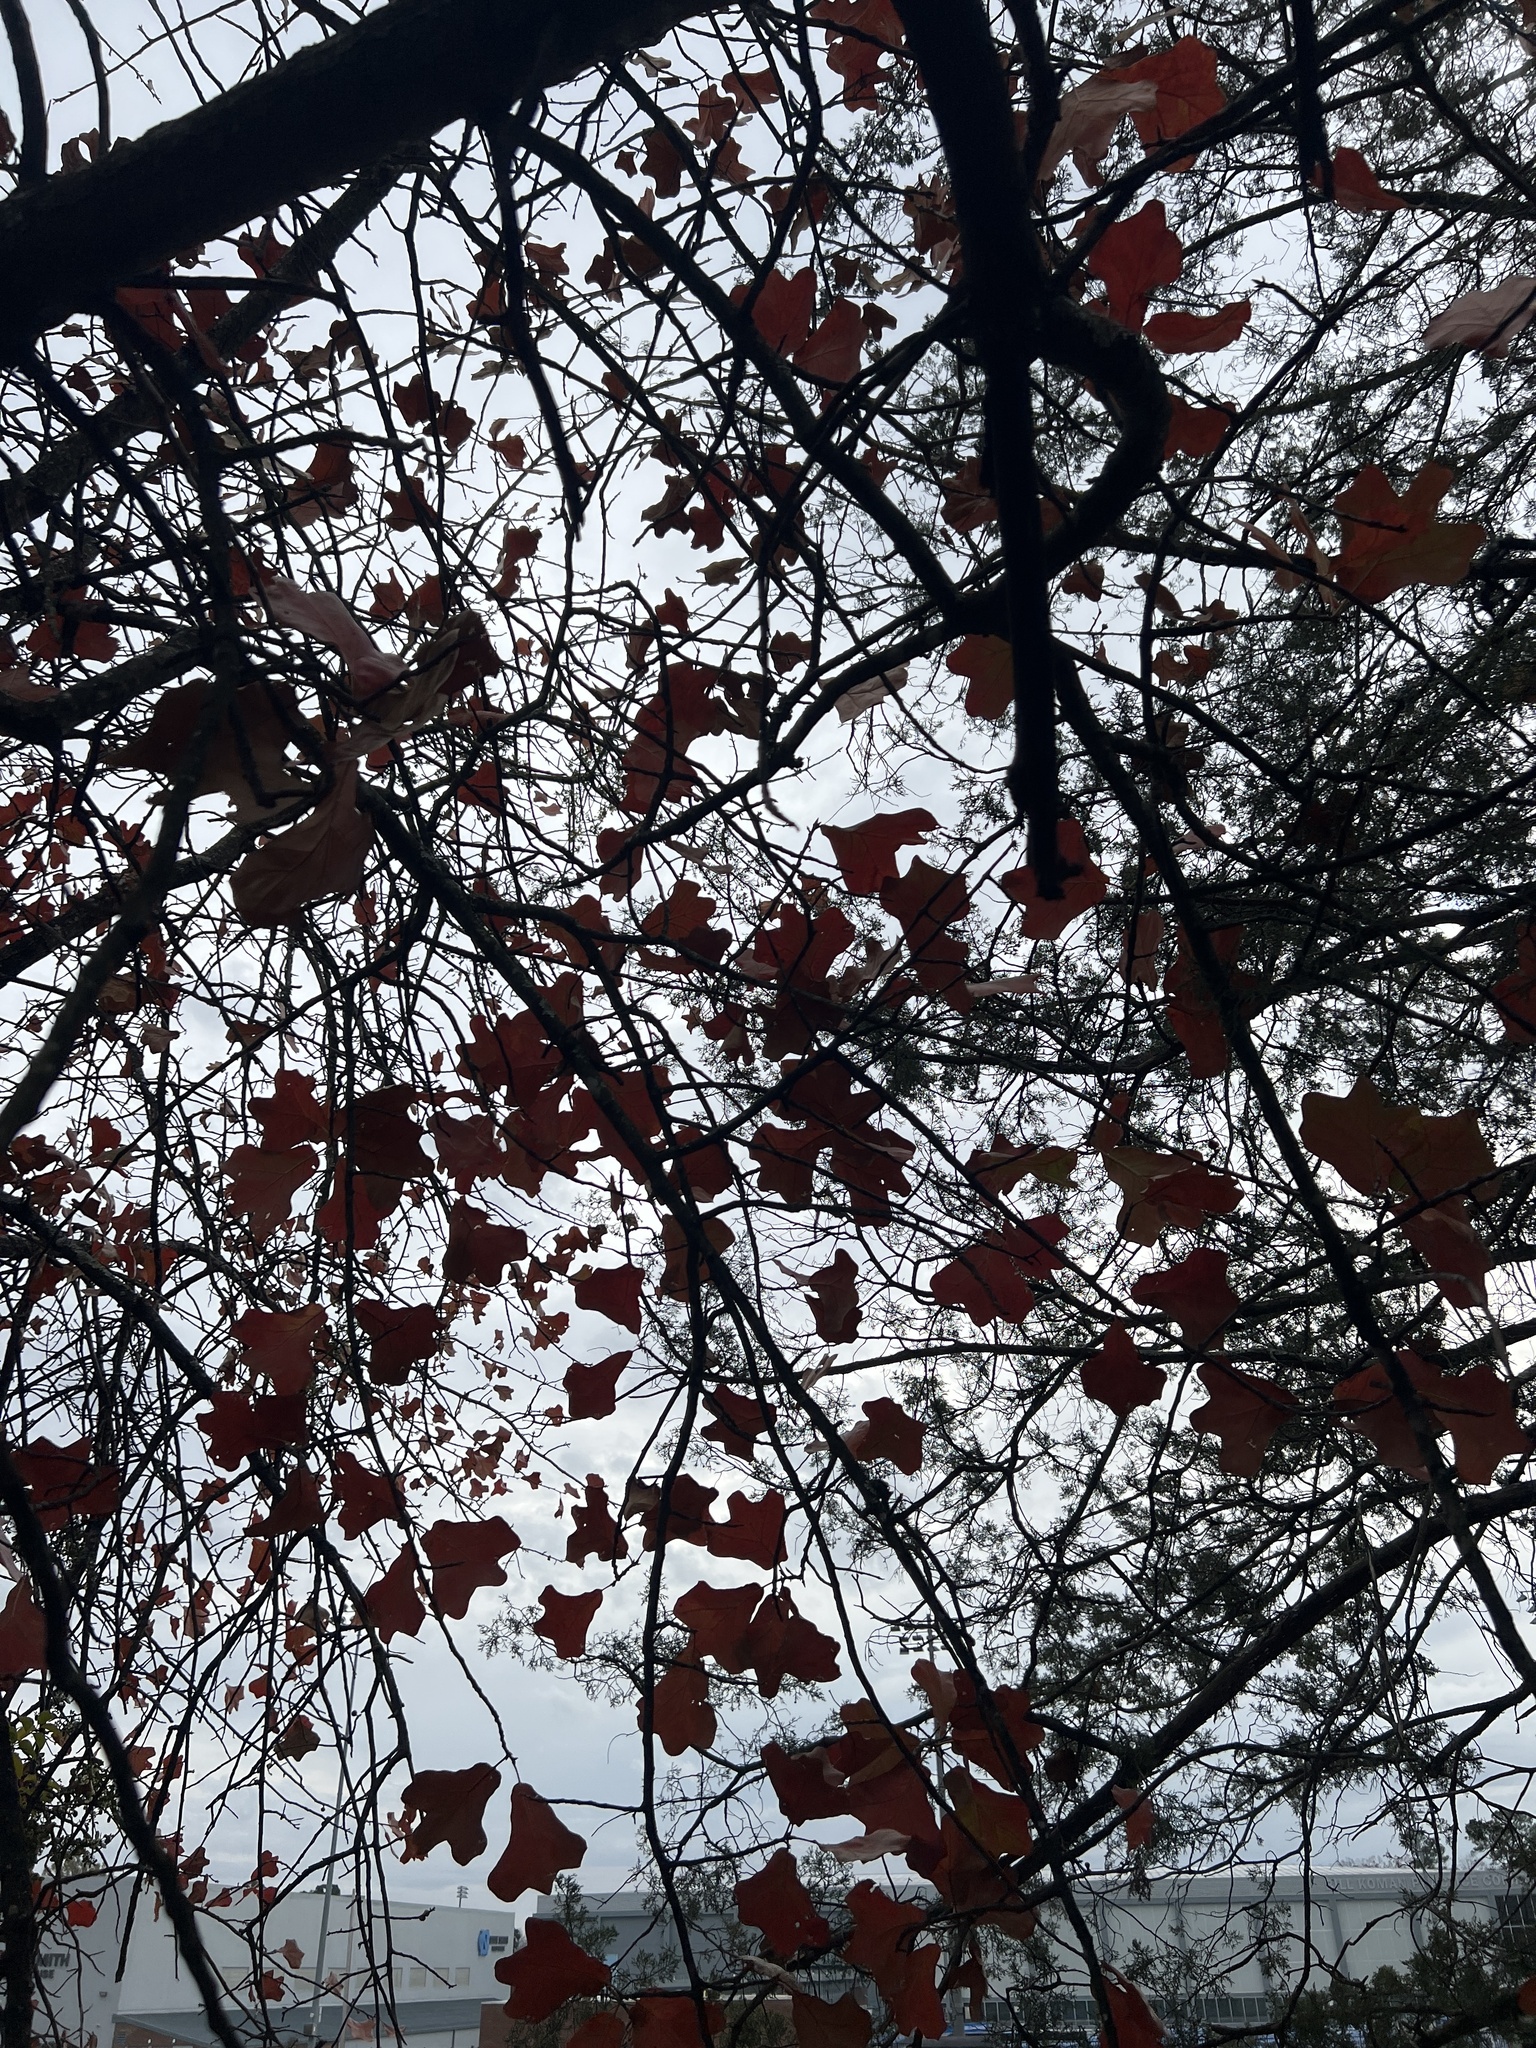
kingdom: Plantae
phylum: Tracheophyta
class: Magnoliopsida
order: Fagales
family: Fagaceae
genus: Quercus
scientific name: Quercus marilandica
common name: Blackjack oak
